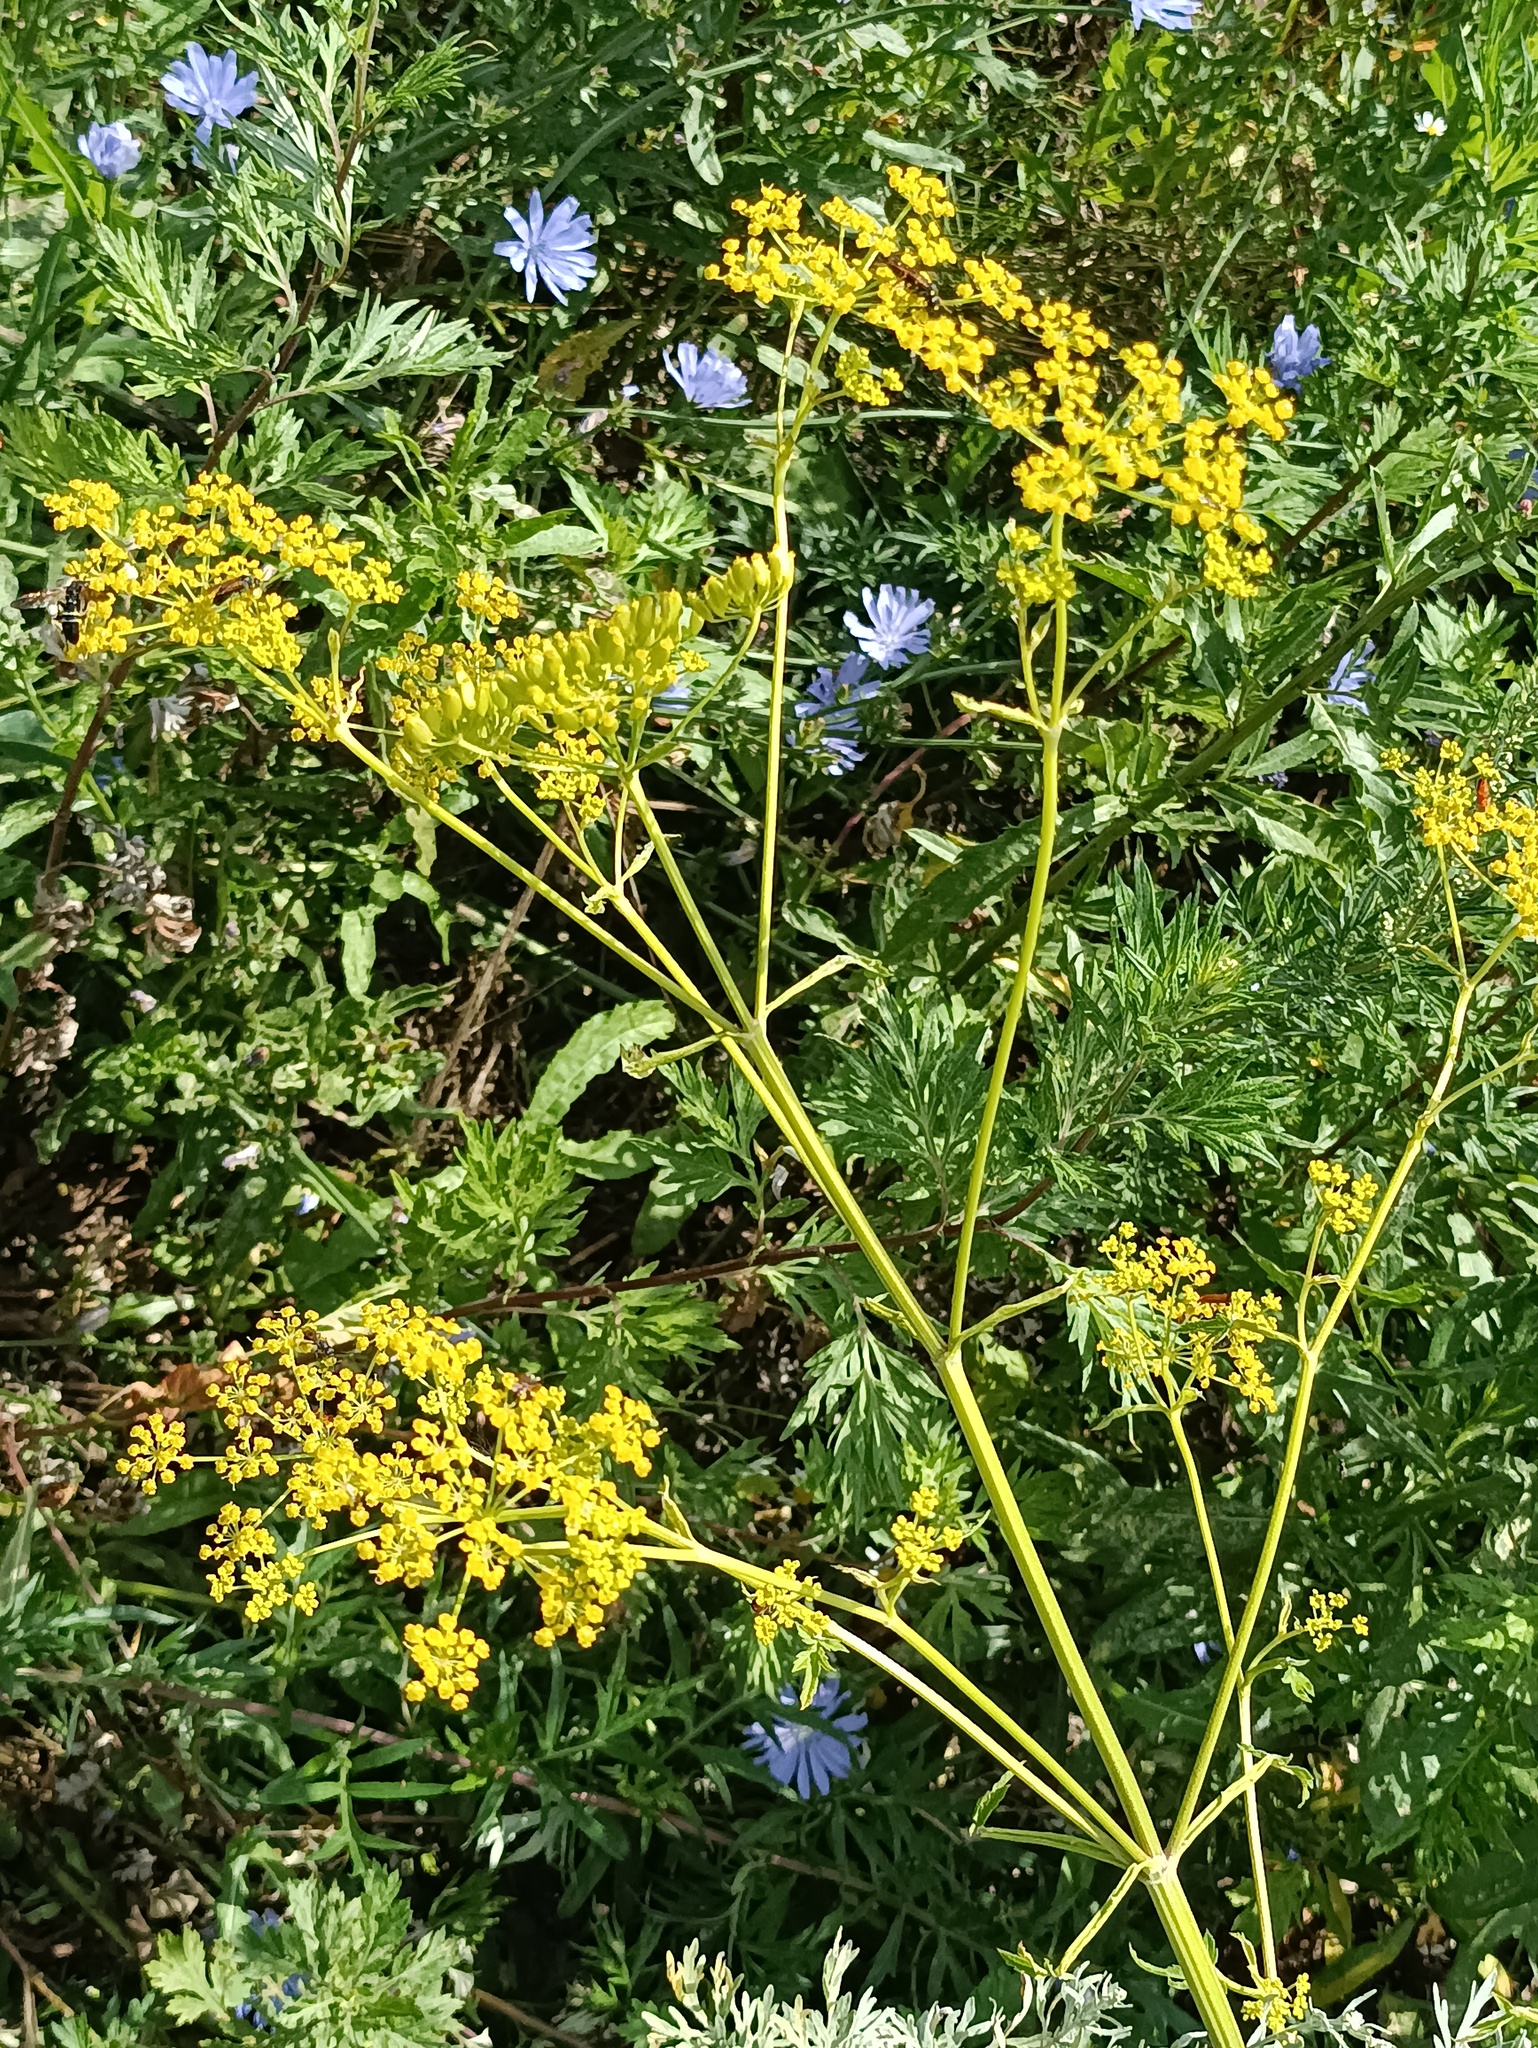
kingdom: Plantae
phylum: Tracheophyta
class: Magnoliopsida
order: Apiales
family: Apiaceae
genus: Pastinaca
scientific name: Pastinaca sativa
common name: Wild parsnip
